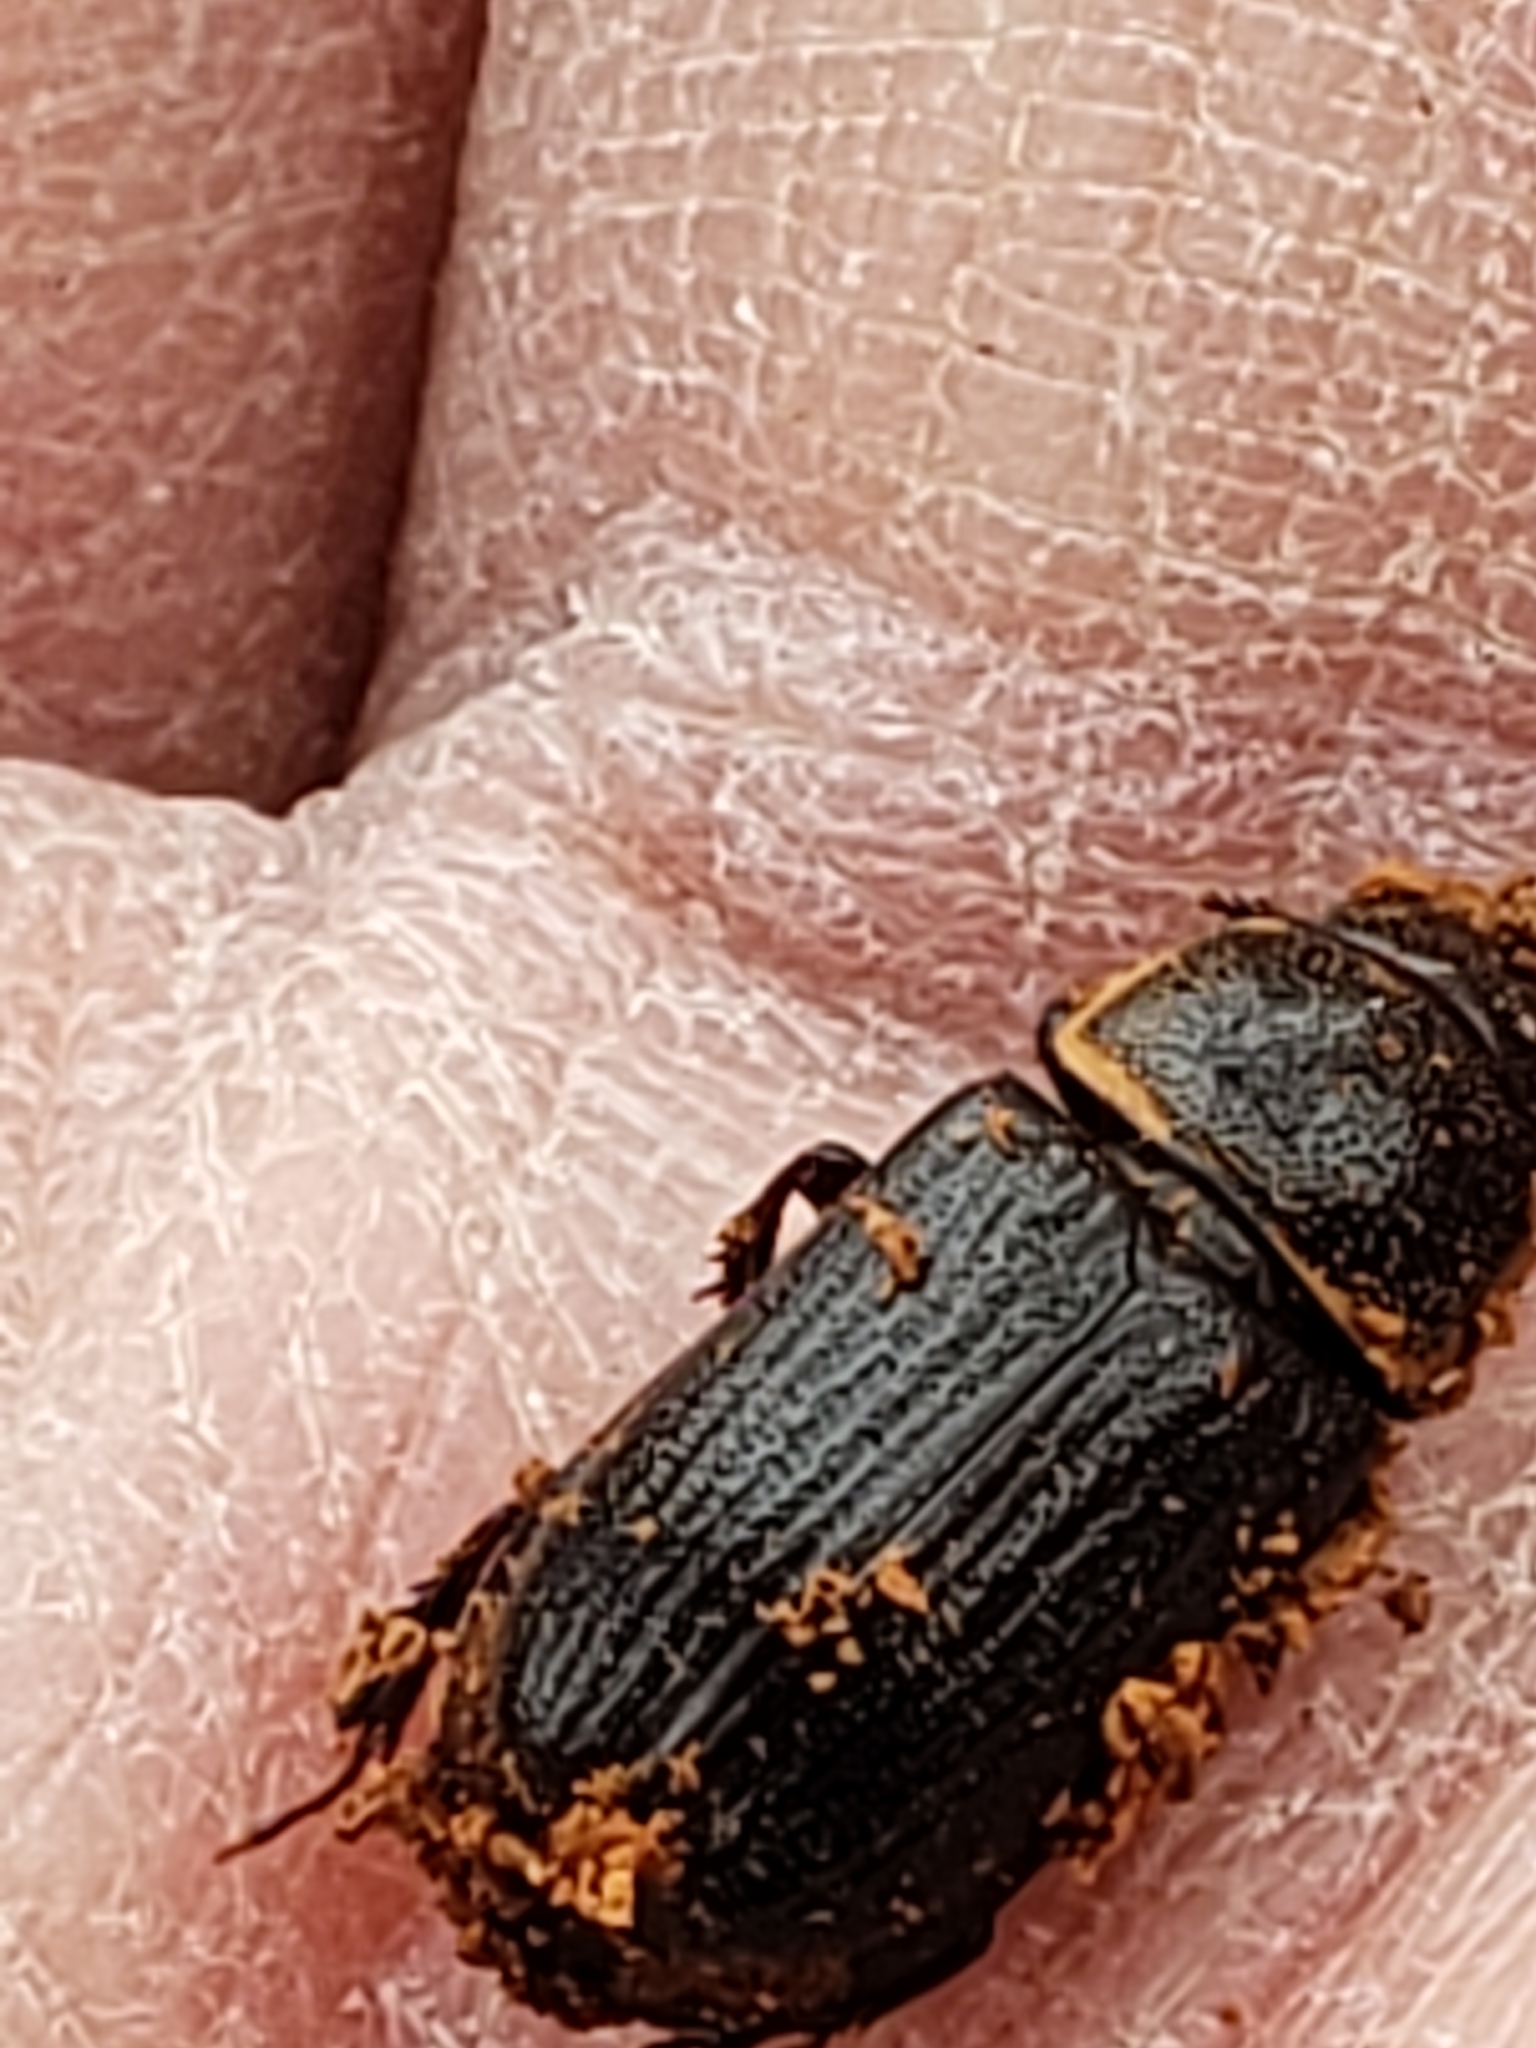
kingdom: Animalia
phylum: Arthropoda
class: Insecta
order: Coleoptera
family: Lucanidae
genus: Ceruchus
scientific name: Ceruchus piceus
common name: Red-rot decay stag beetle
